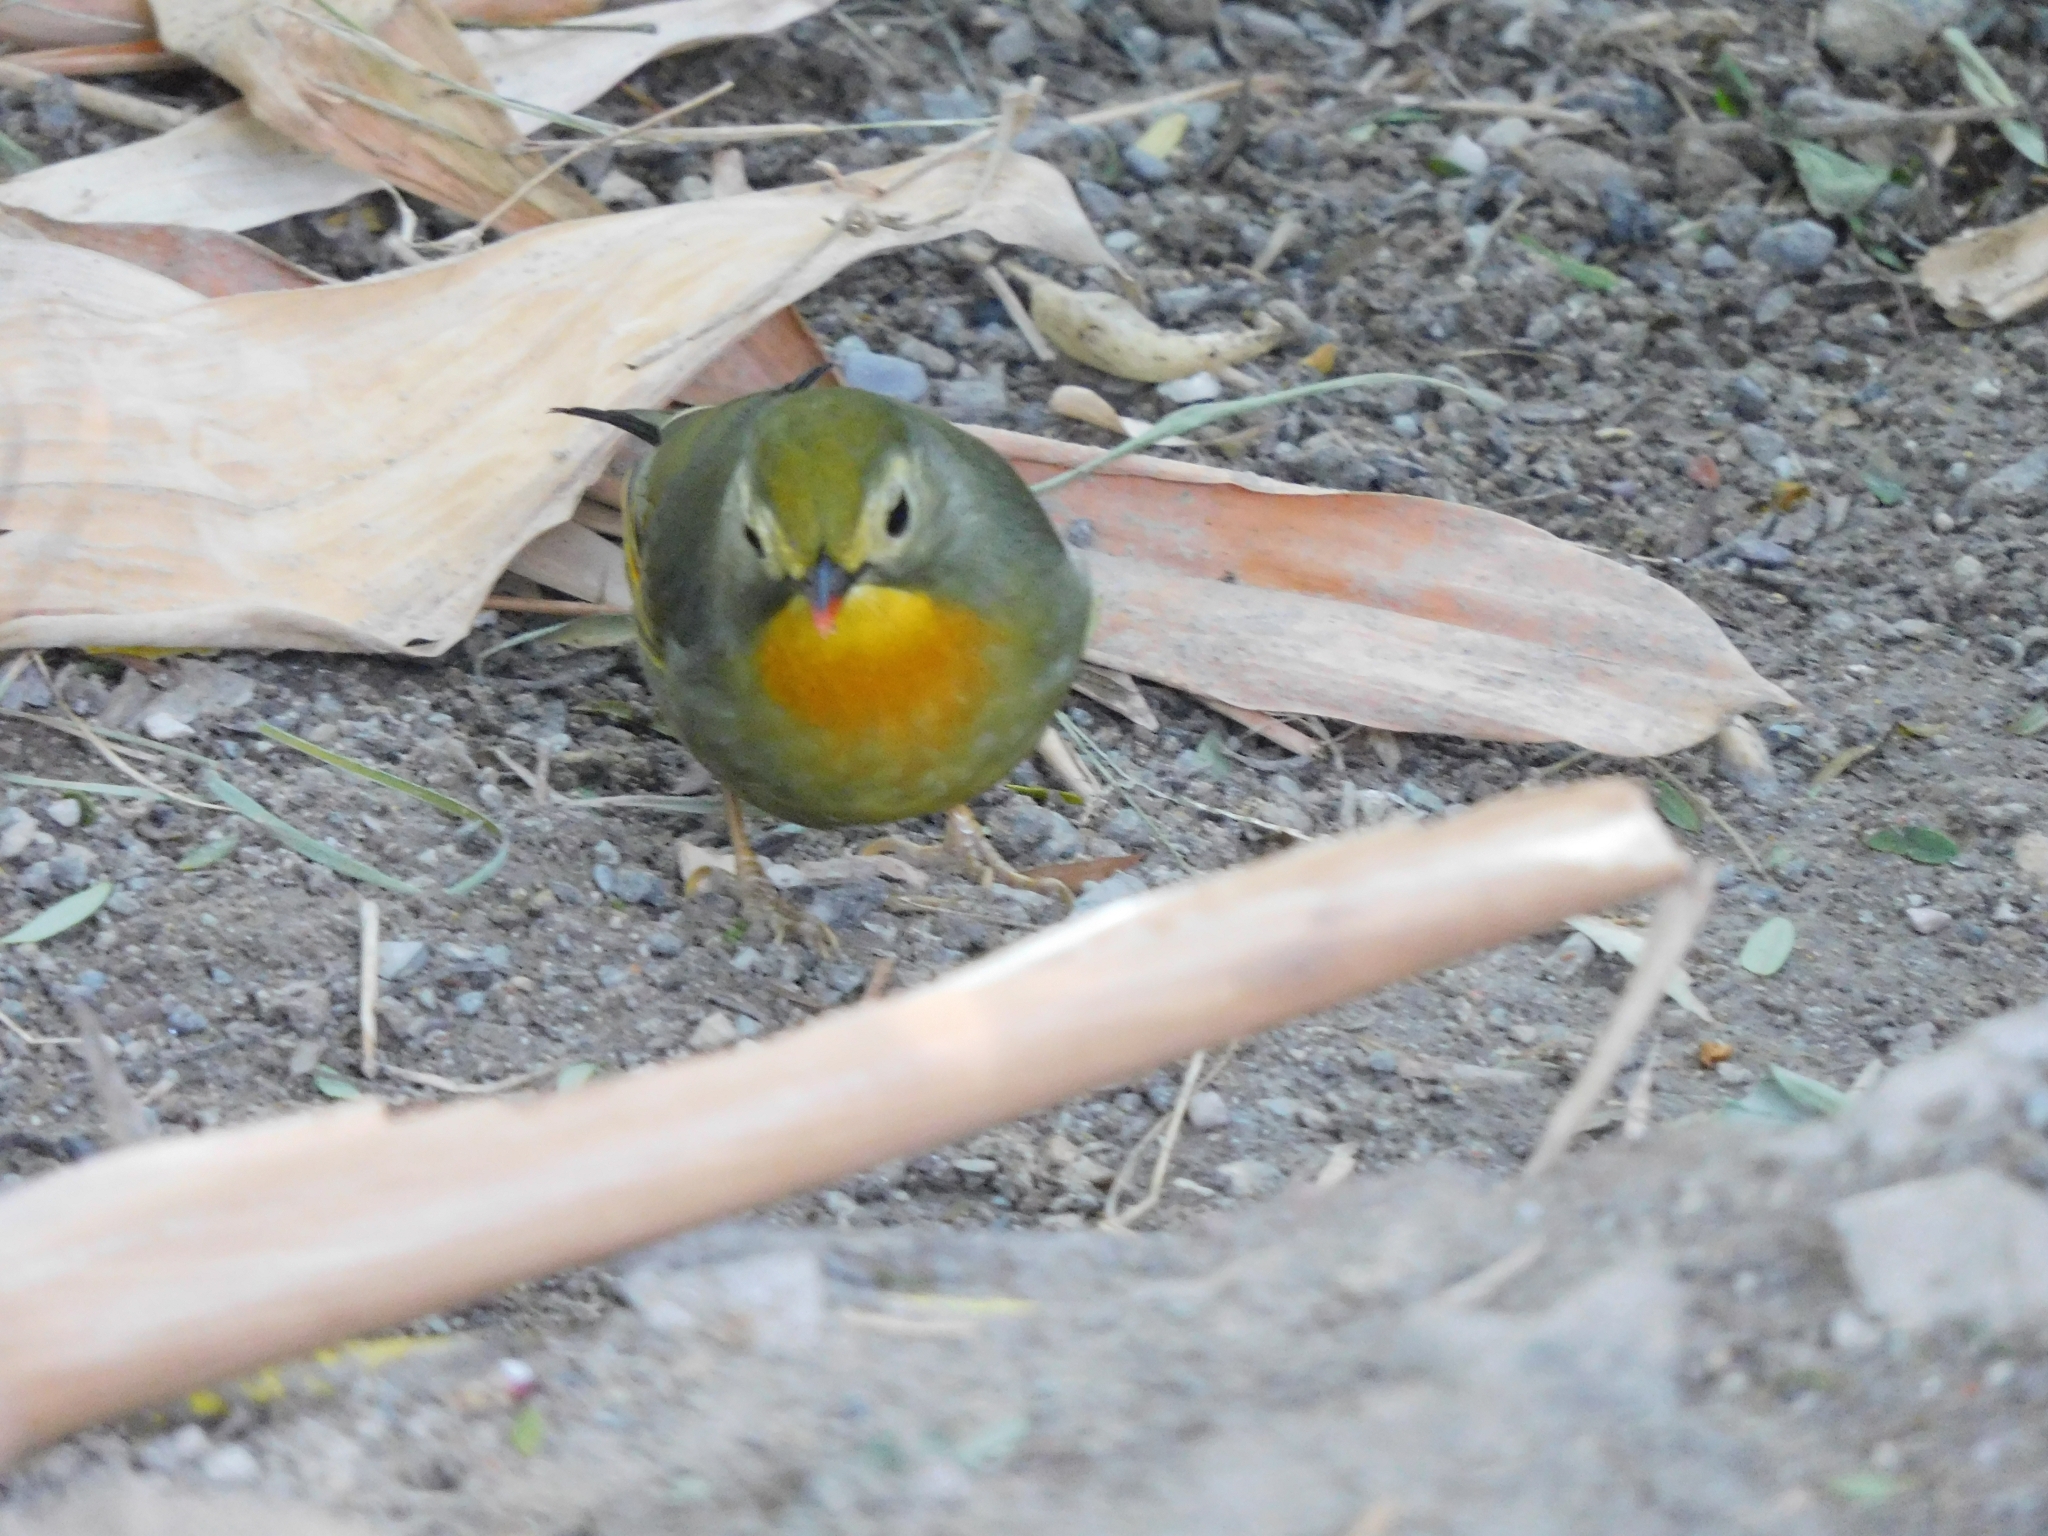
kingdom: Animalia
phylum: Chordata
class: Aves
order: Passeriformes
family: Leiothrichidae
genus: Leiothrix
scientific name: Leiothrix lutea
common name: Red-billed leiothrix
